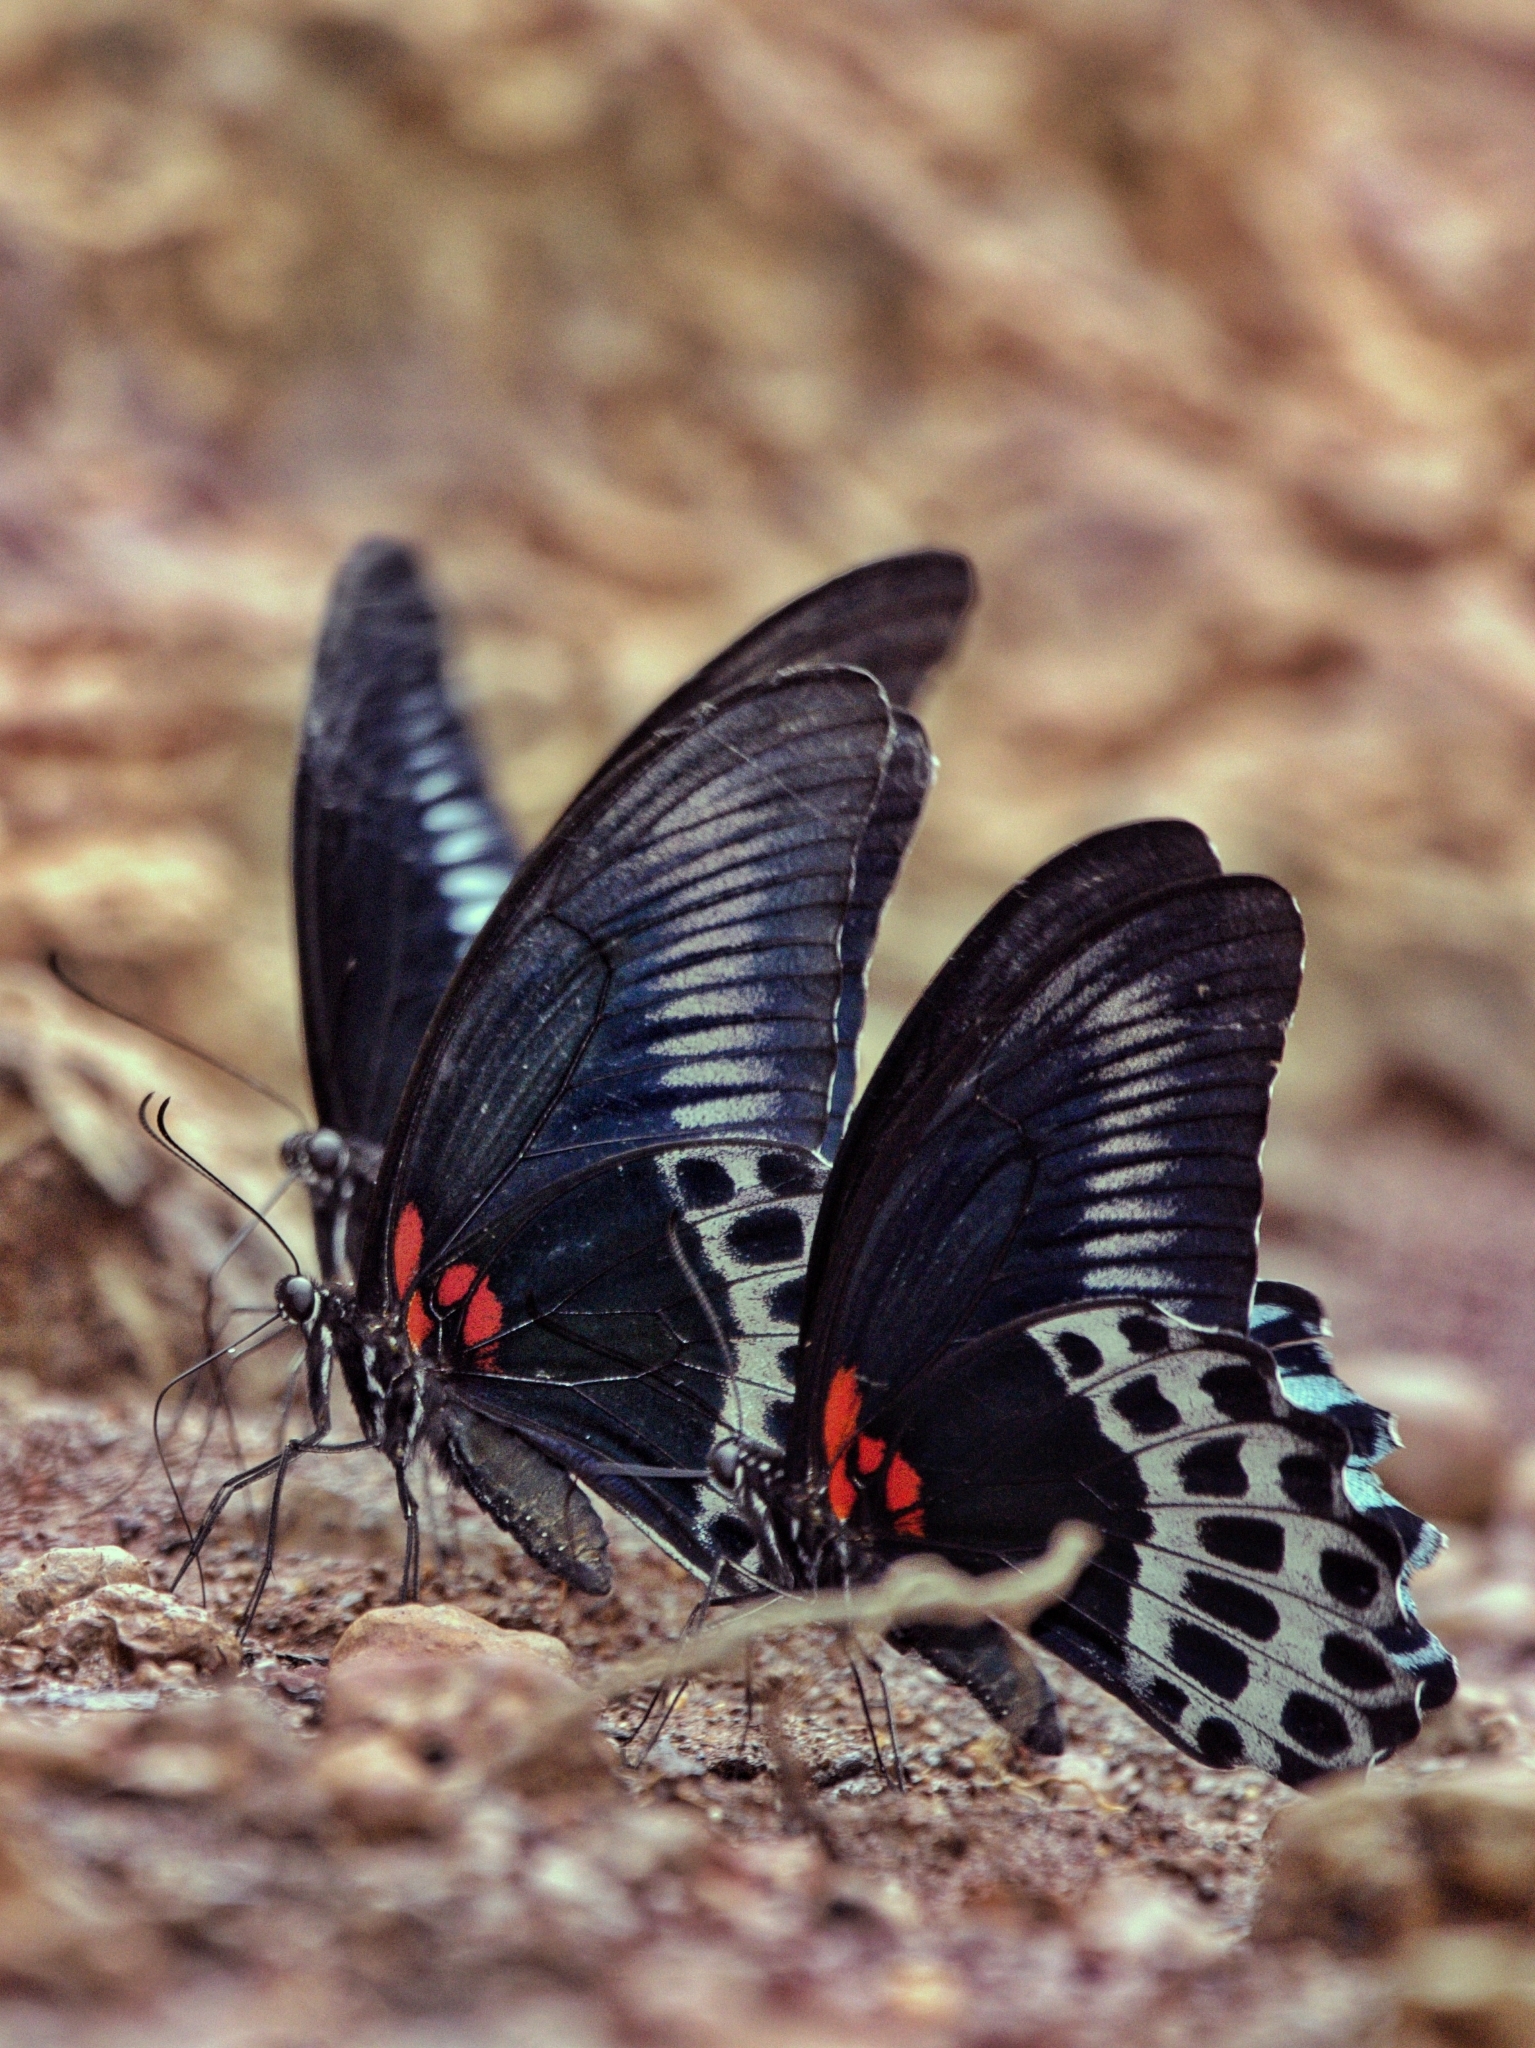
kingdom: Animalia
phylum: Arthropoda
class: Insecta
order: Lepidoptera
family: Papilionidae
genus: Papilio
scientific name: Papilio memnon
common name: Great mormon
